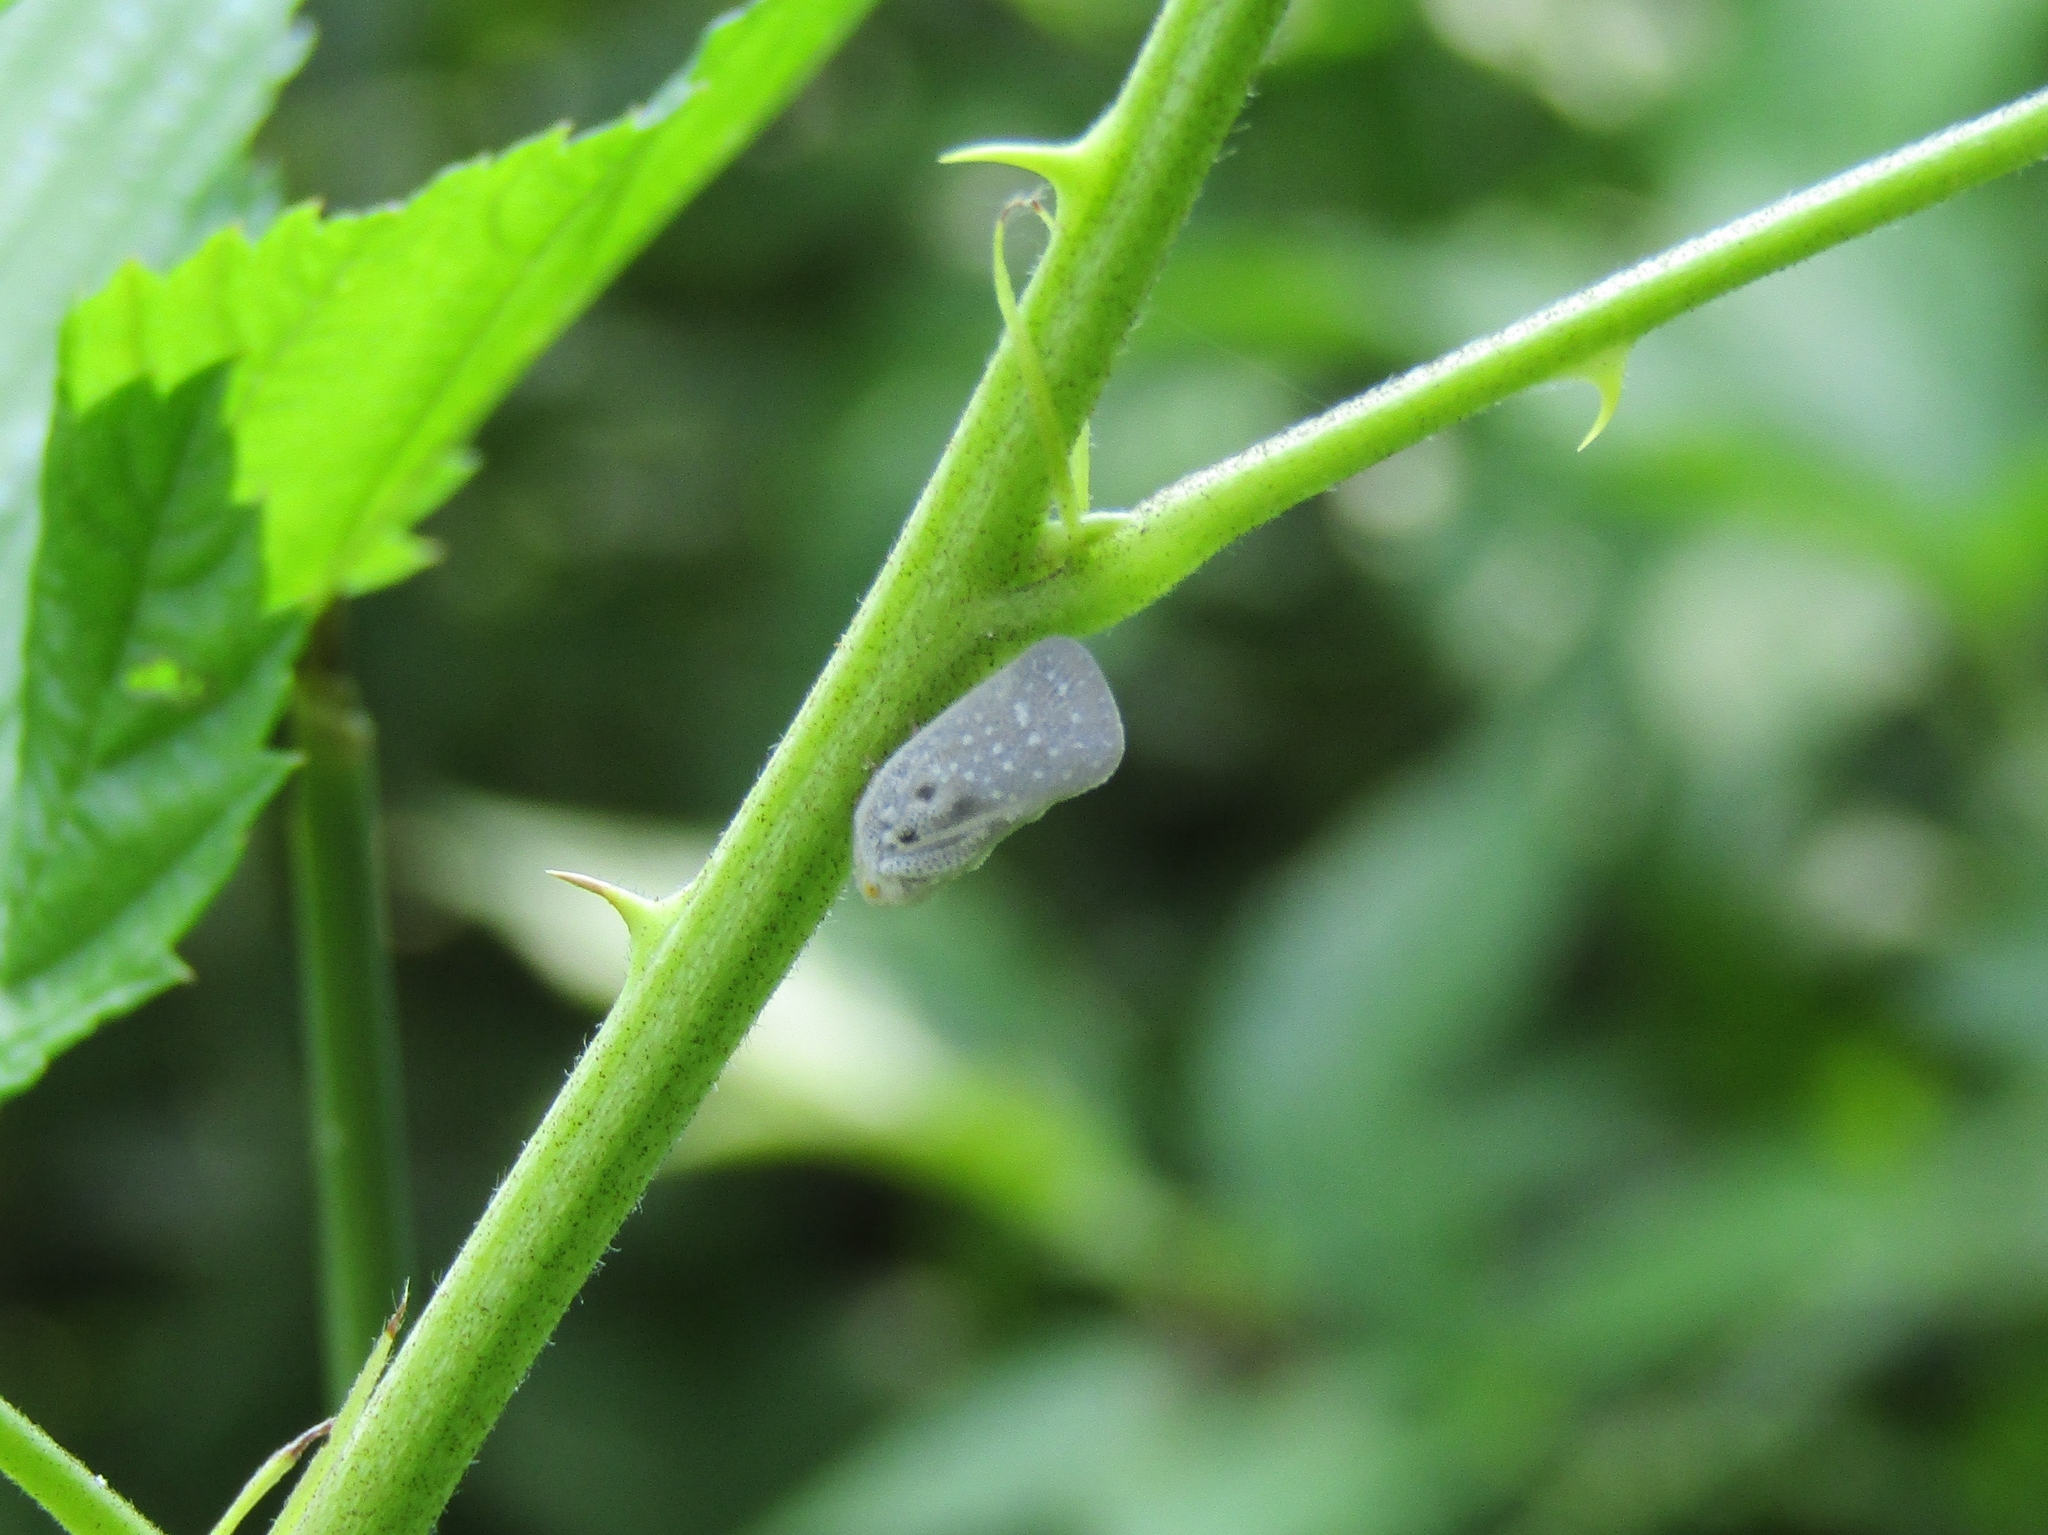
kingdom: Animalia
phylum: Arthropoda
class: Insecta
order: Hemiptera
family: Flatidae
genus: Metcalfa
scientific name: Metcalfa pruinosa
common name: Citrus flatid planthopper
